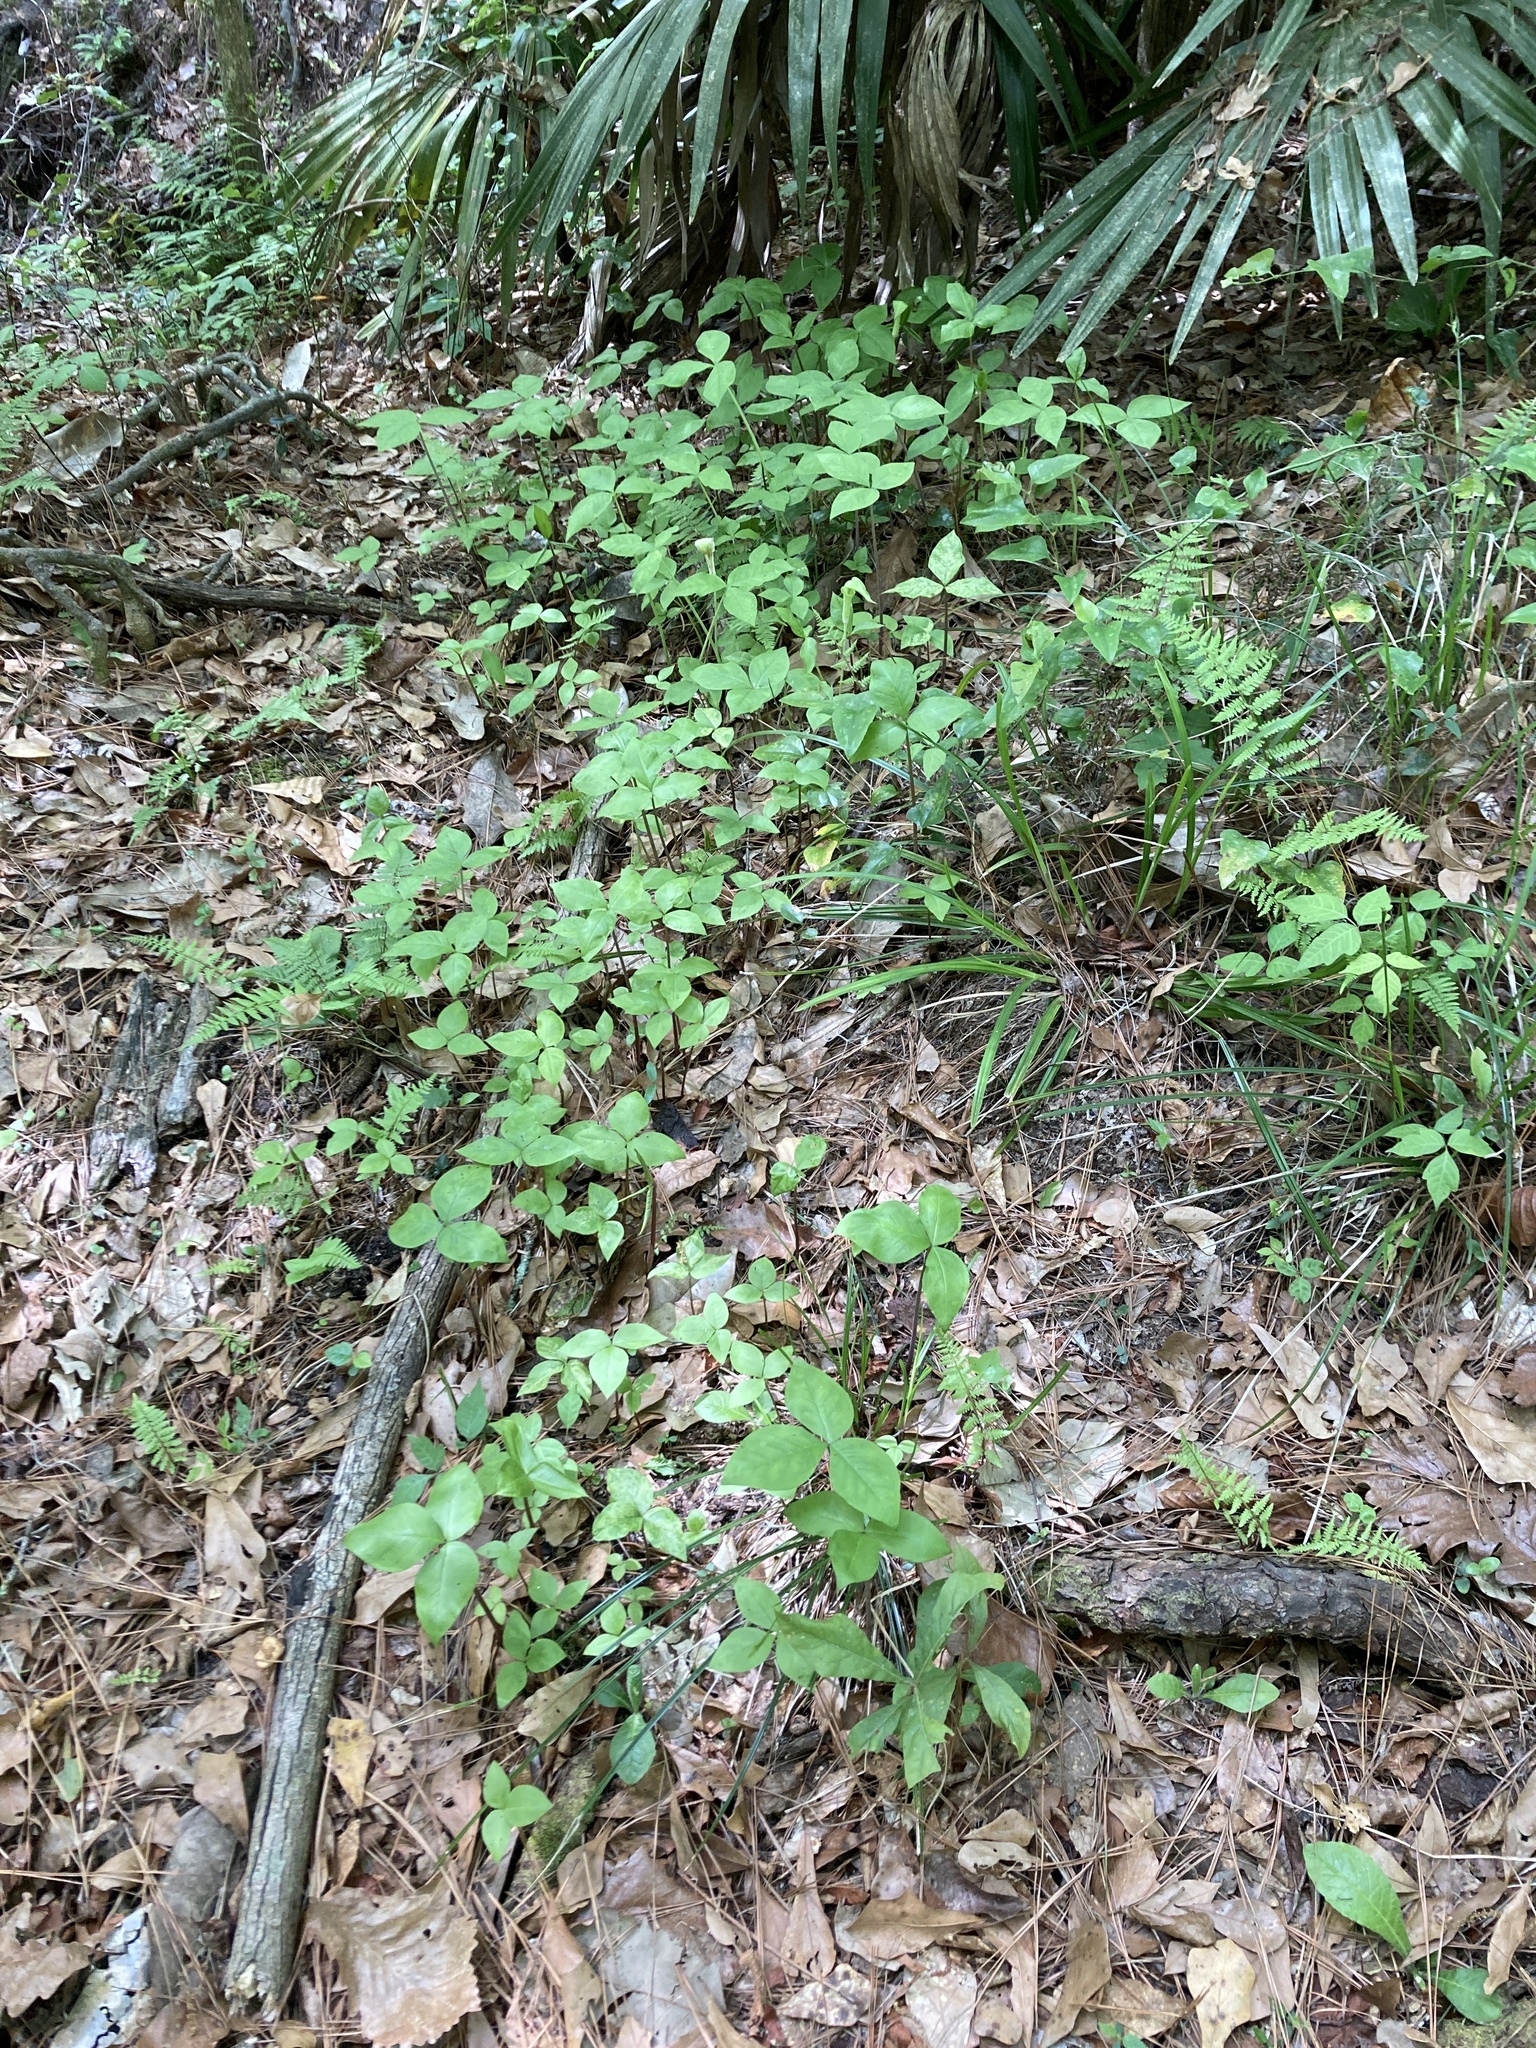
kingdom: Plantae
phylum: Tracheophyta
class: Liliopsida
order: Alismatales
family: Araceae
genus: Arisaema
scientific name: Arisaema acuminatum
